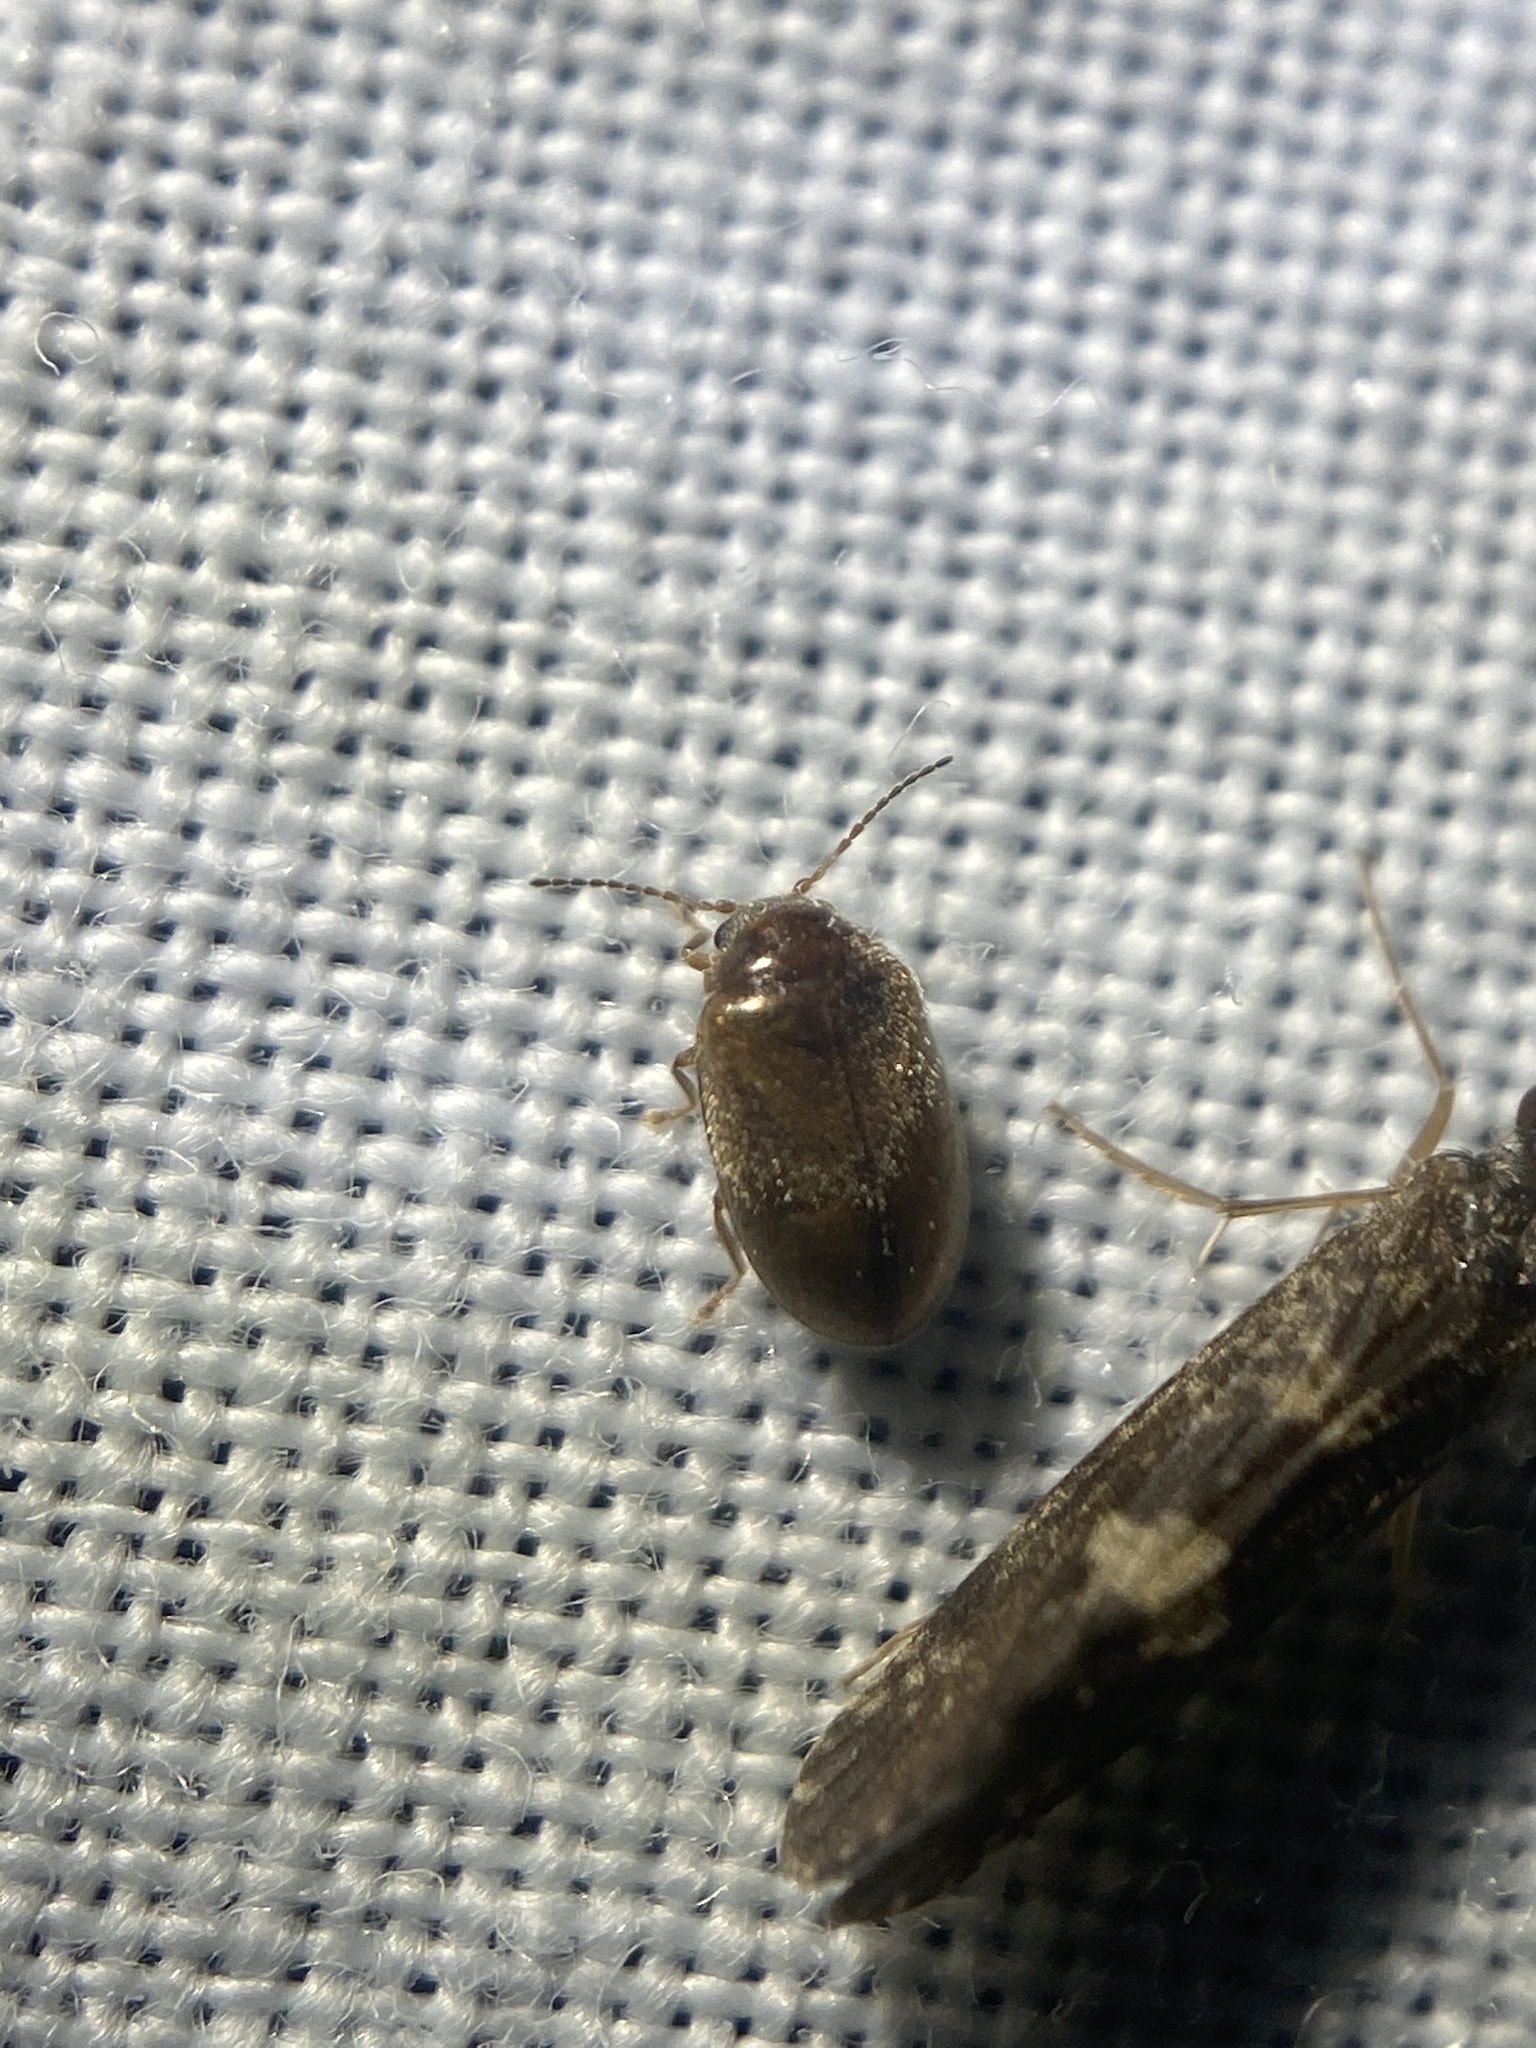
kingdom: Animalia
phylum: Arthropoda
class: Insecta
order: Coleoptera
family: Scirtidae
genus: Contacyphon
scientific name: Contacyphon
